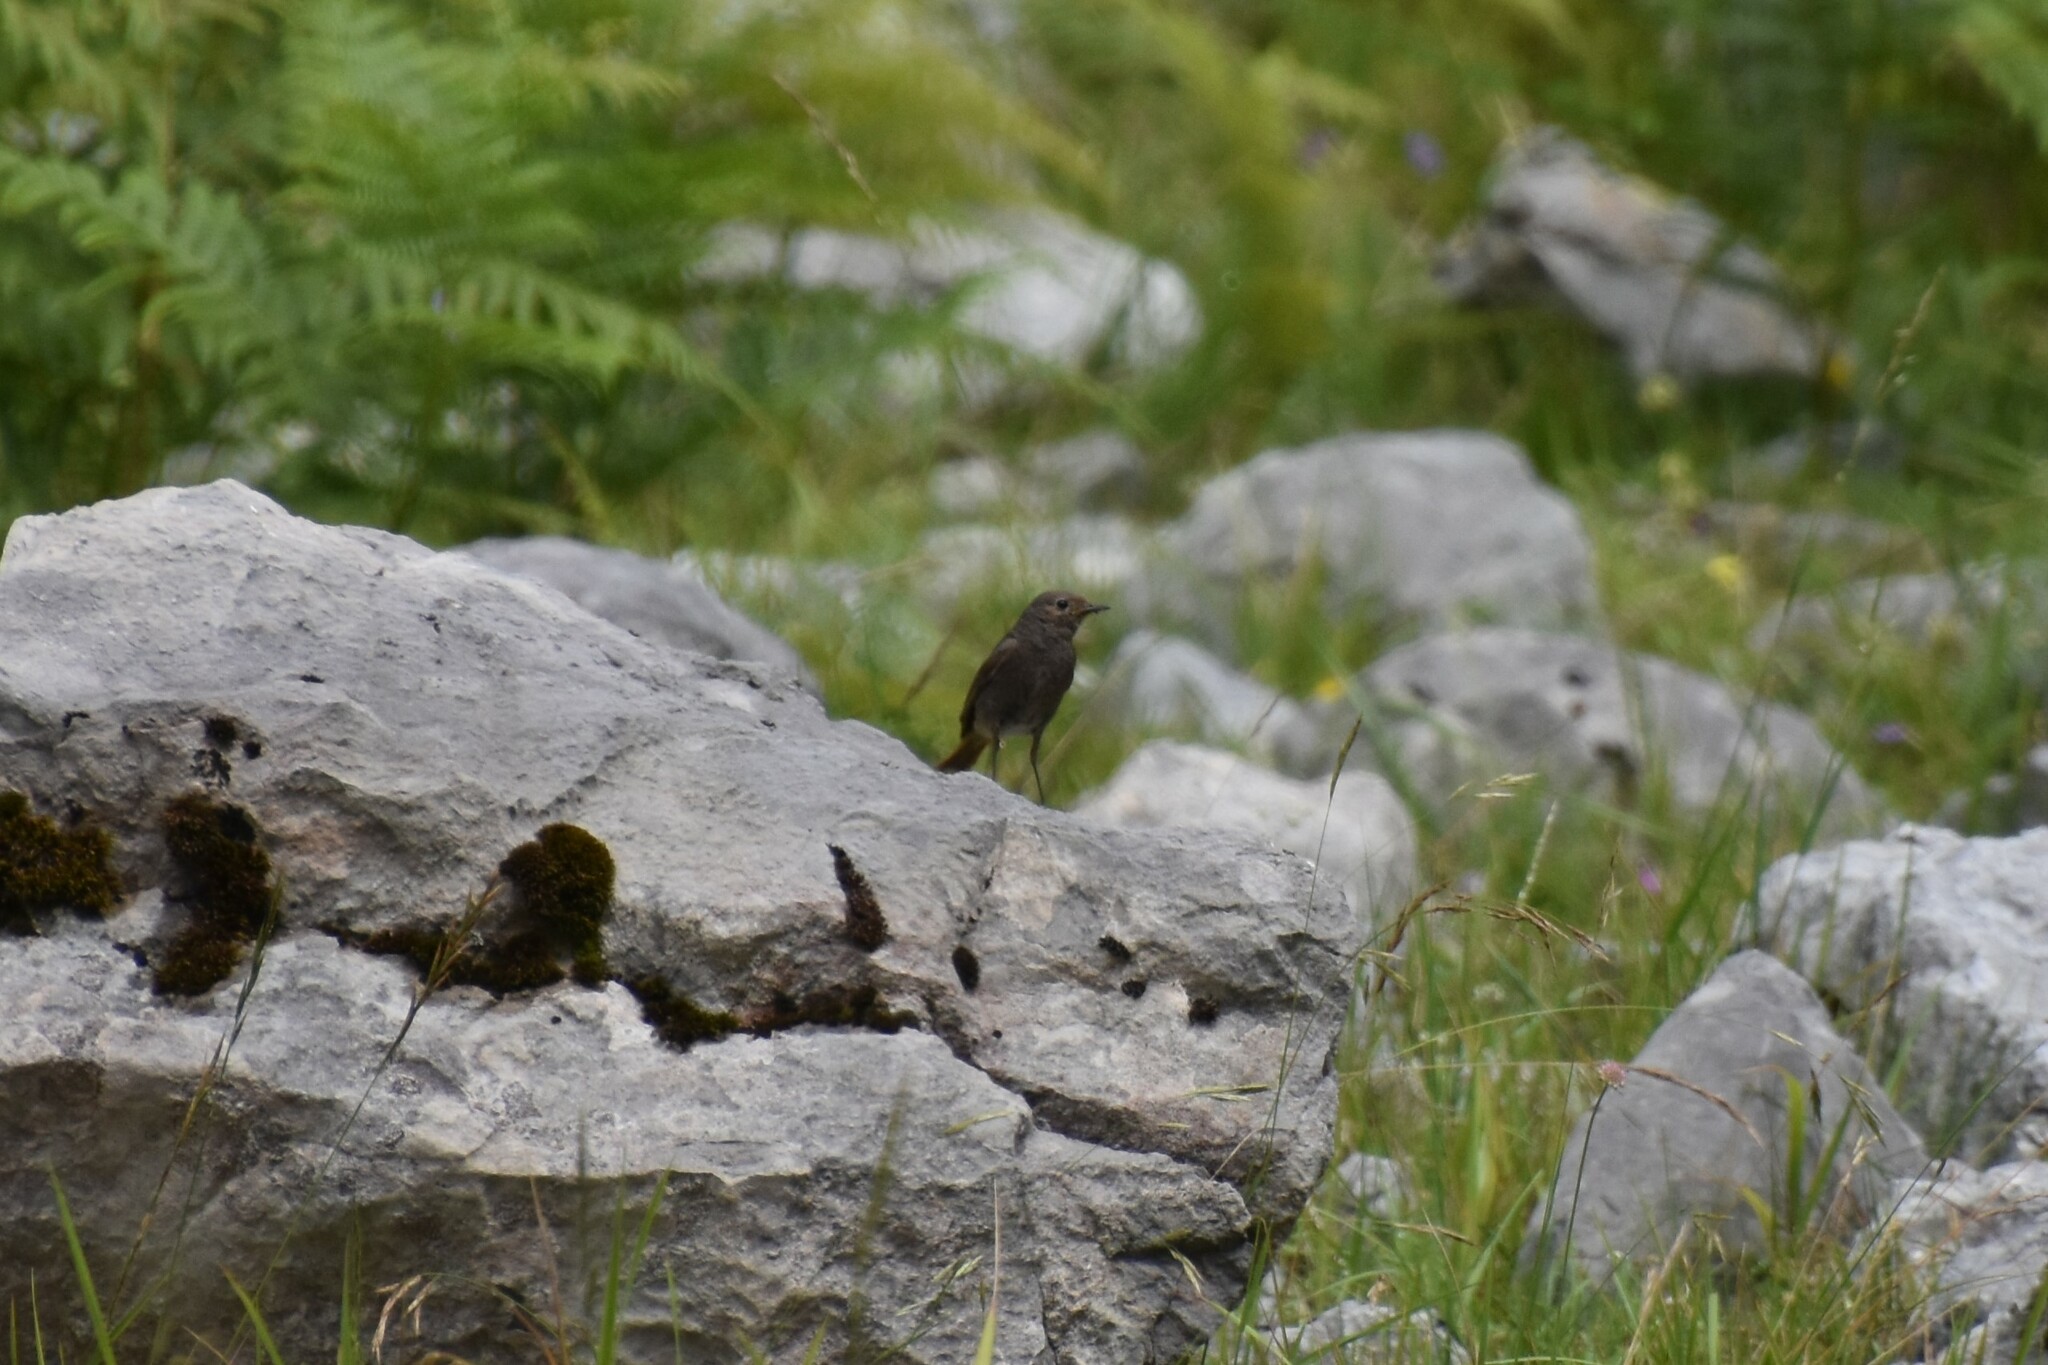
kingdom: Animalia
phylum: Chordata
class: Aves
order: Passeriformes
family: Muscicapidae
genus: Phoenicurus
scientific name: Phoenicurus ochruros
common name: Black redstart
